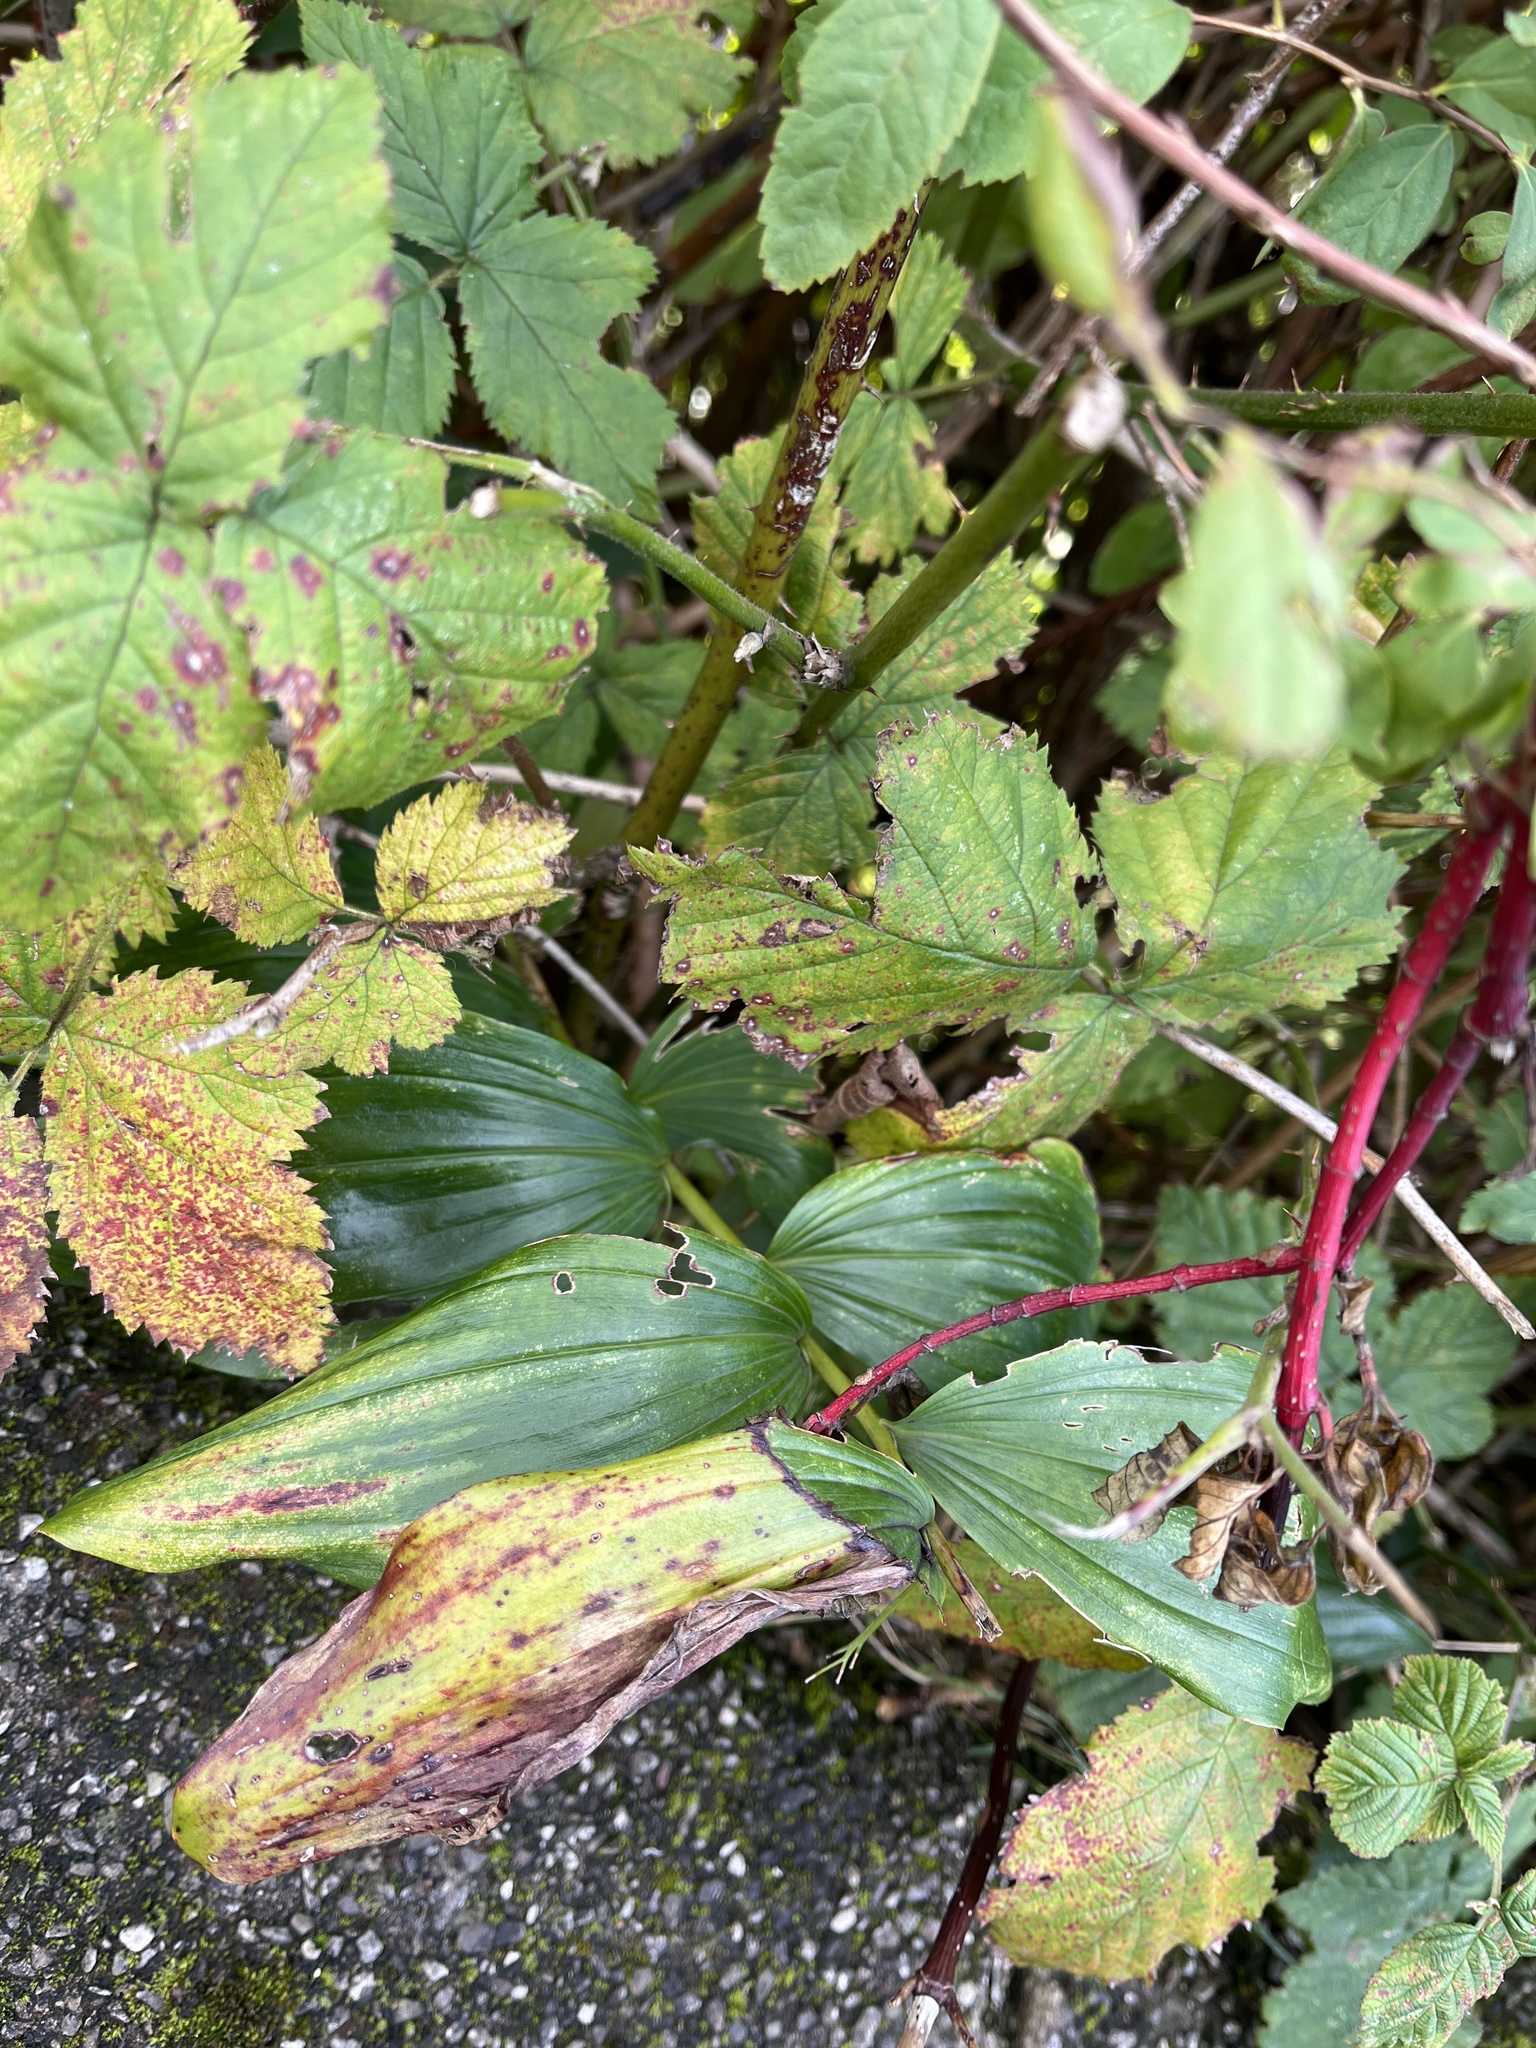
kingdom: Plantae
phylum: Tracheophyta
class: Liliopsida
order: Asparagales
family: Asparagaceae
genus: Polygonatum
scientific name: Polygonatum hybridum
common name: Garden solomon's-seal
